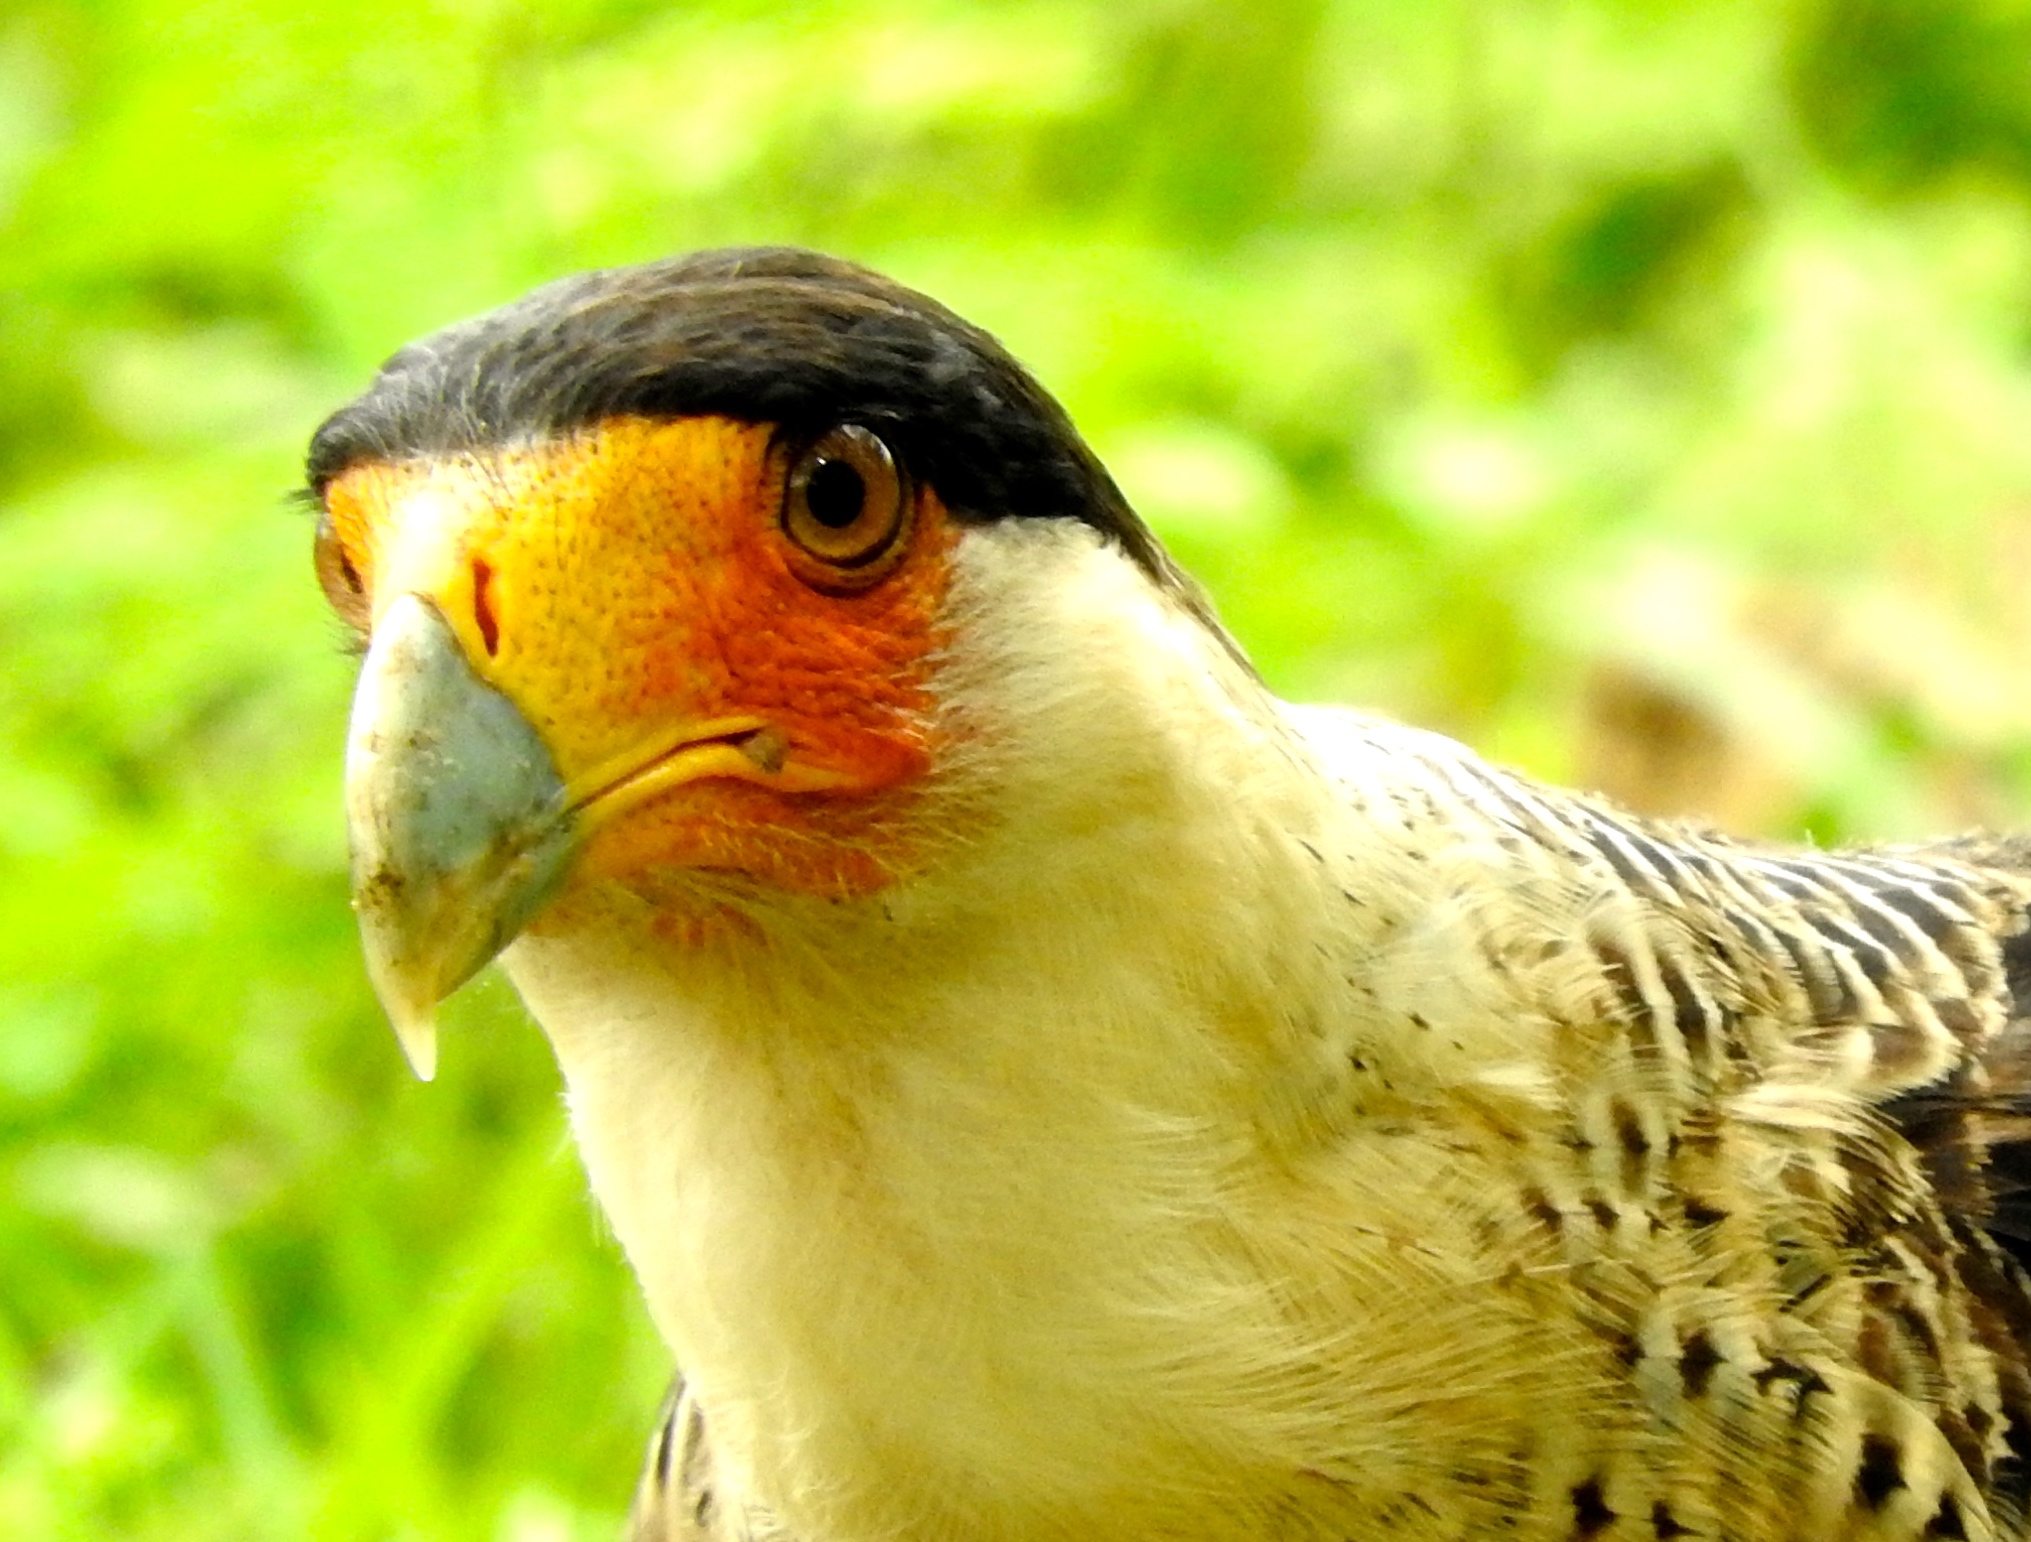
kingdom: Animalia
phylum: Chordata
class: Aves
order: Falconiformes
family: Falconidae
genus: Caracara
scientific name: Caracara plancus
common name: Southern caracara
